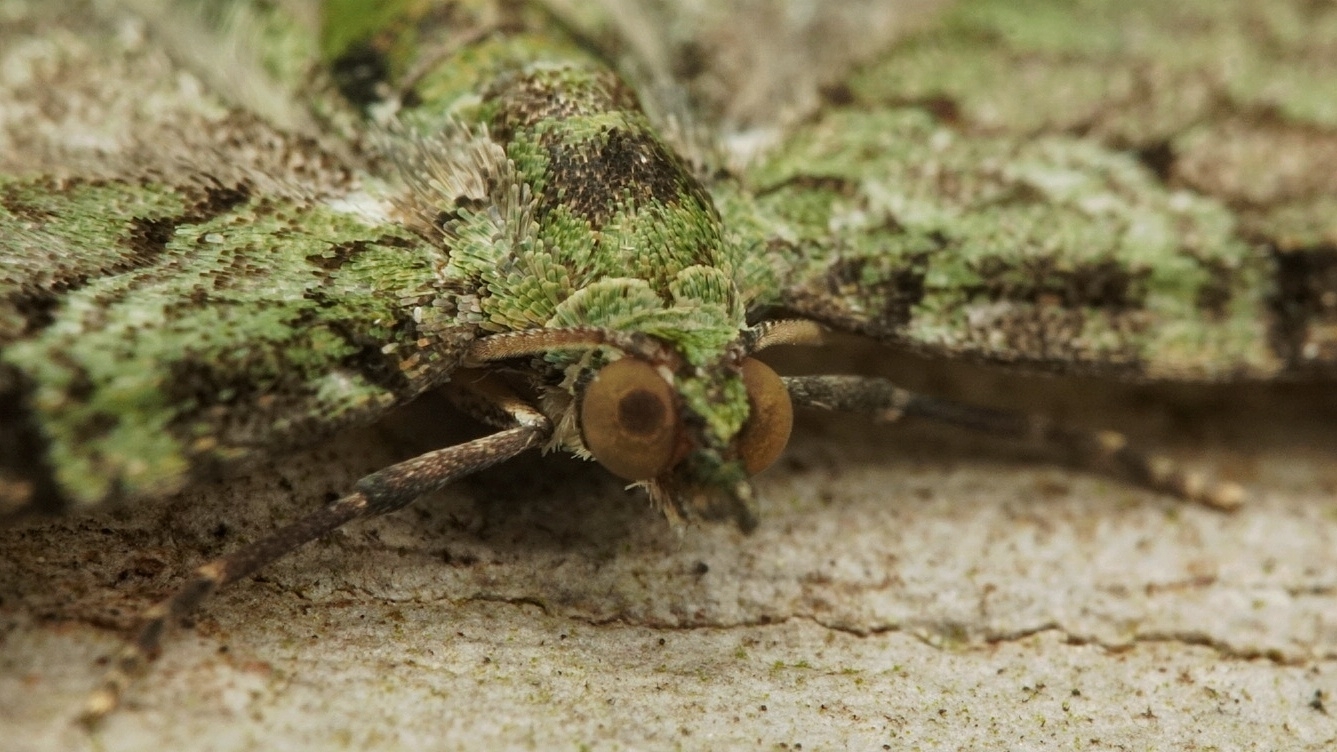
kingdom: Animalia
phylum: Arthropoda
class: Insecta
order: Lepidoptera
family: Geometridae
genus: Pasiphila
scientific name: Pasiphila rectangulata
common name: Green pug
